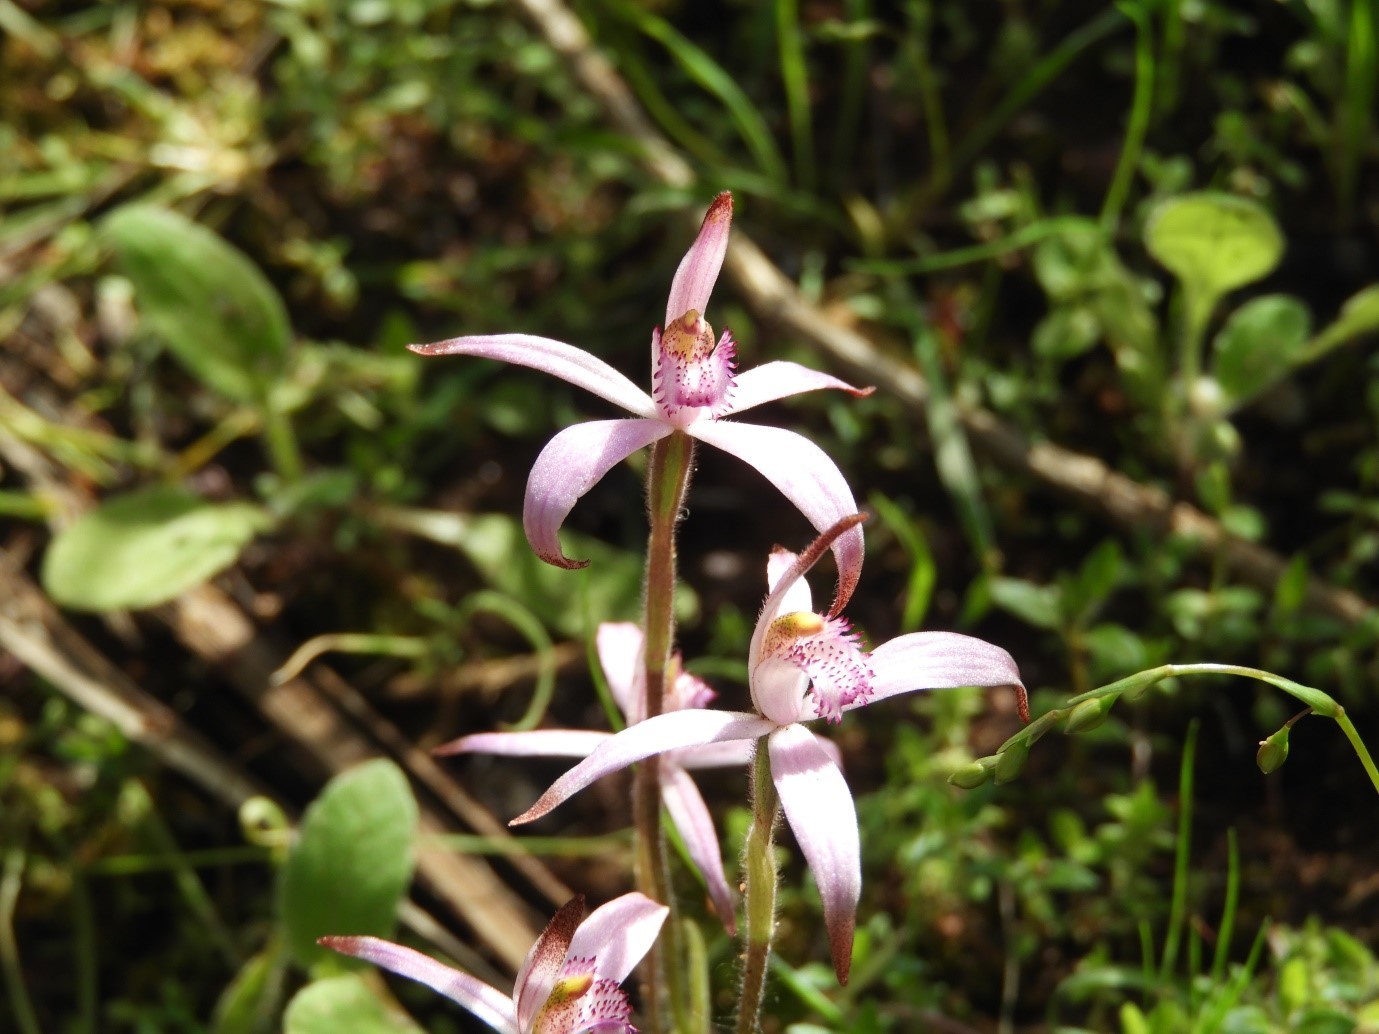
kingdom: Plantae
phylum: Tracheophyta
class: Liliopsida
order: Asparagales
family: Orchidaceae
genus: Caladenia
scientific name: Caladenia hirta
